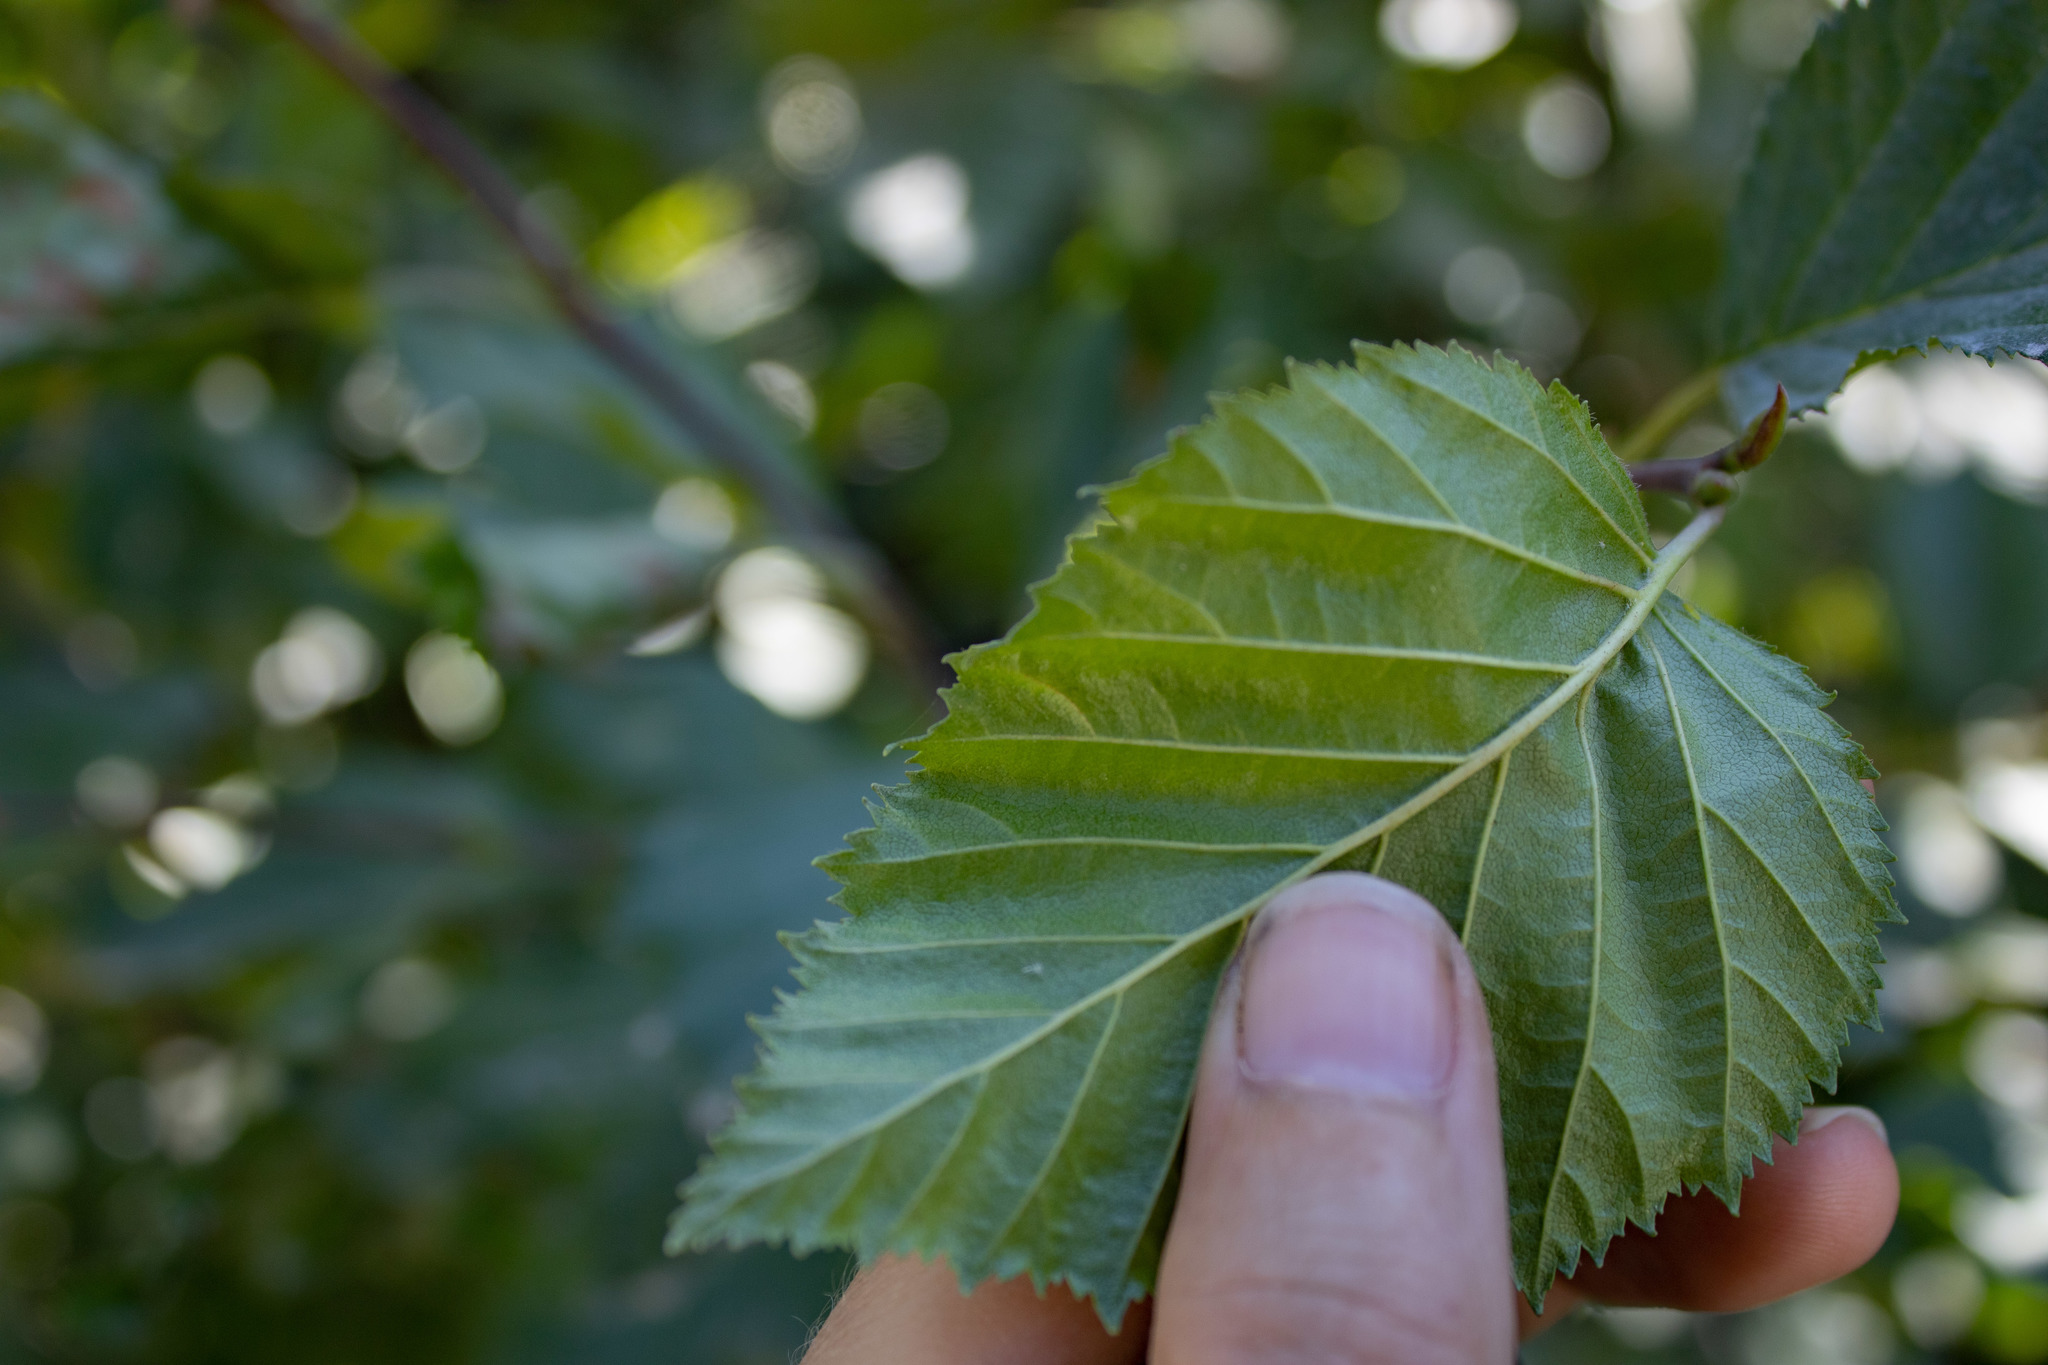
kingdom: Plantae
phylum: Tracheophyta
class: Magnoliopsida
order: Fagales
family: Betulaceae
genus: Alnus
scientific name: Alnus alnobetula
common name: Green alder
